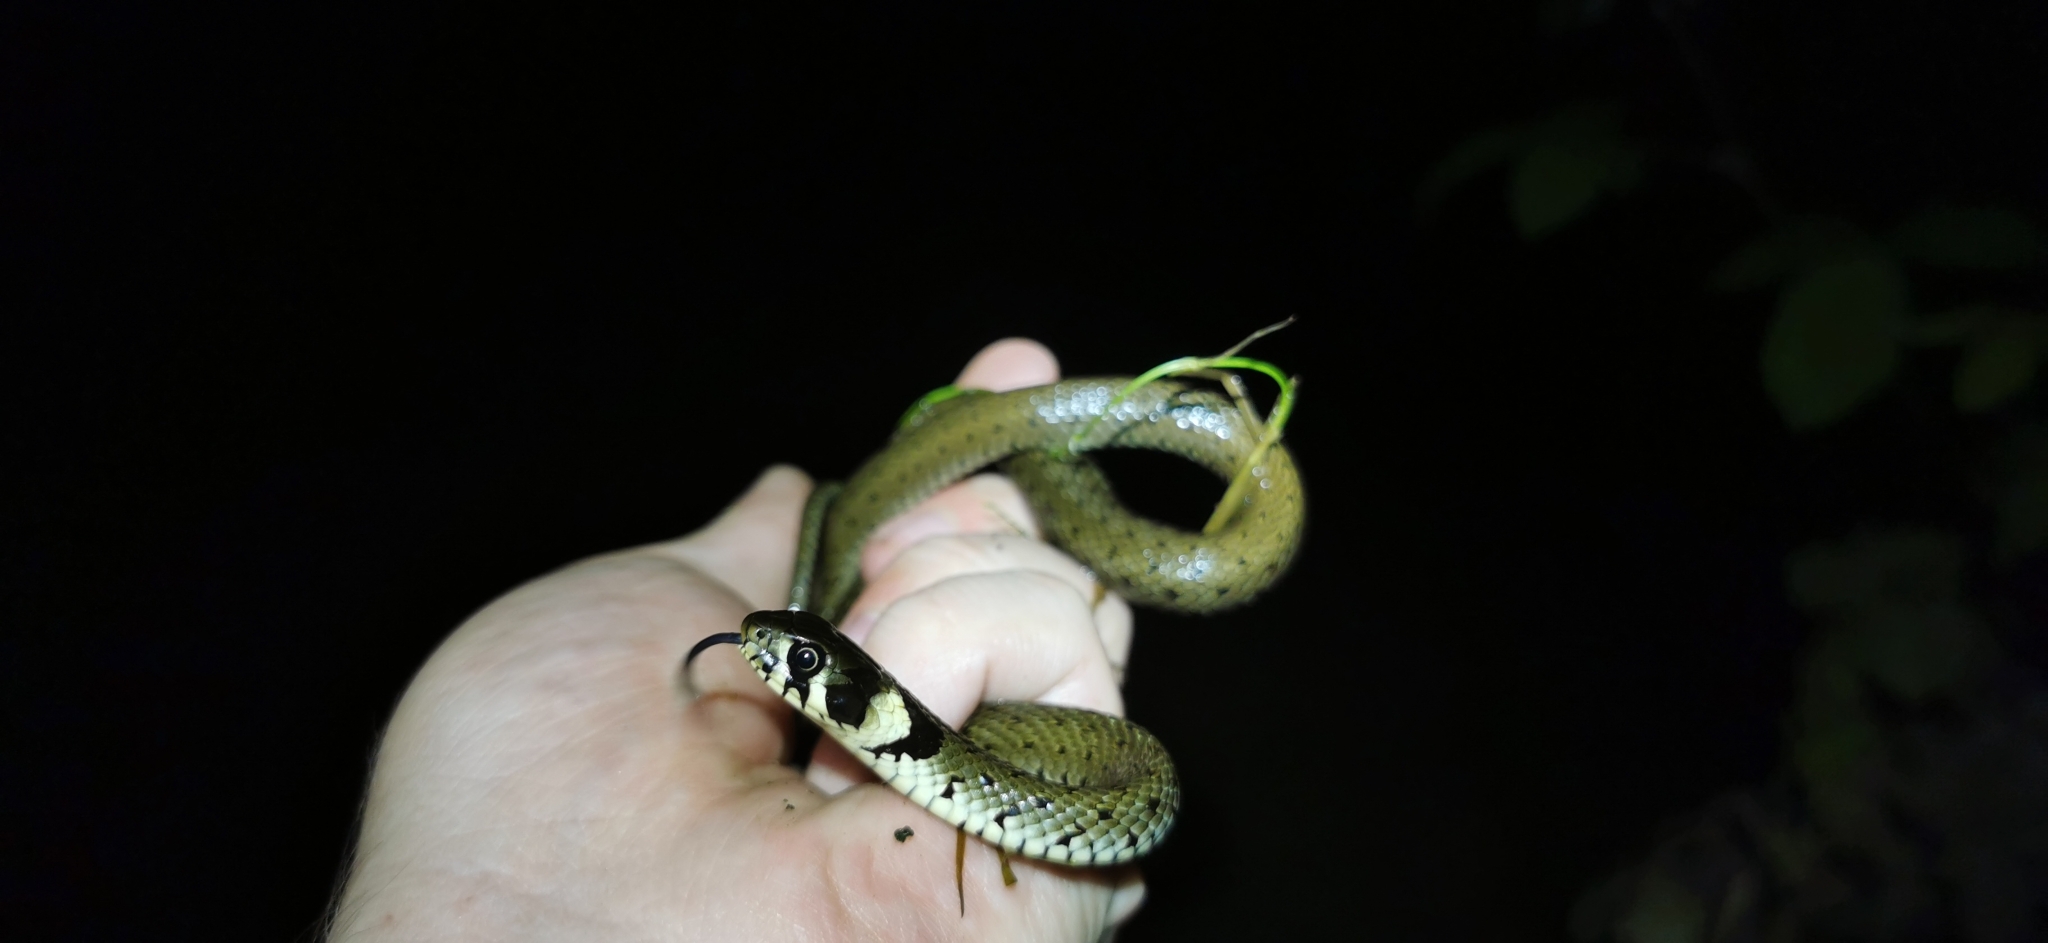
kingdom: Animalia
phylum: Chordata
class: Squamata
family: Colubridae
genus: Natrix
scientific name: Natrix natrix
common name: Grass snake
